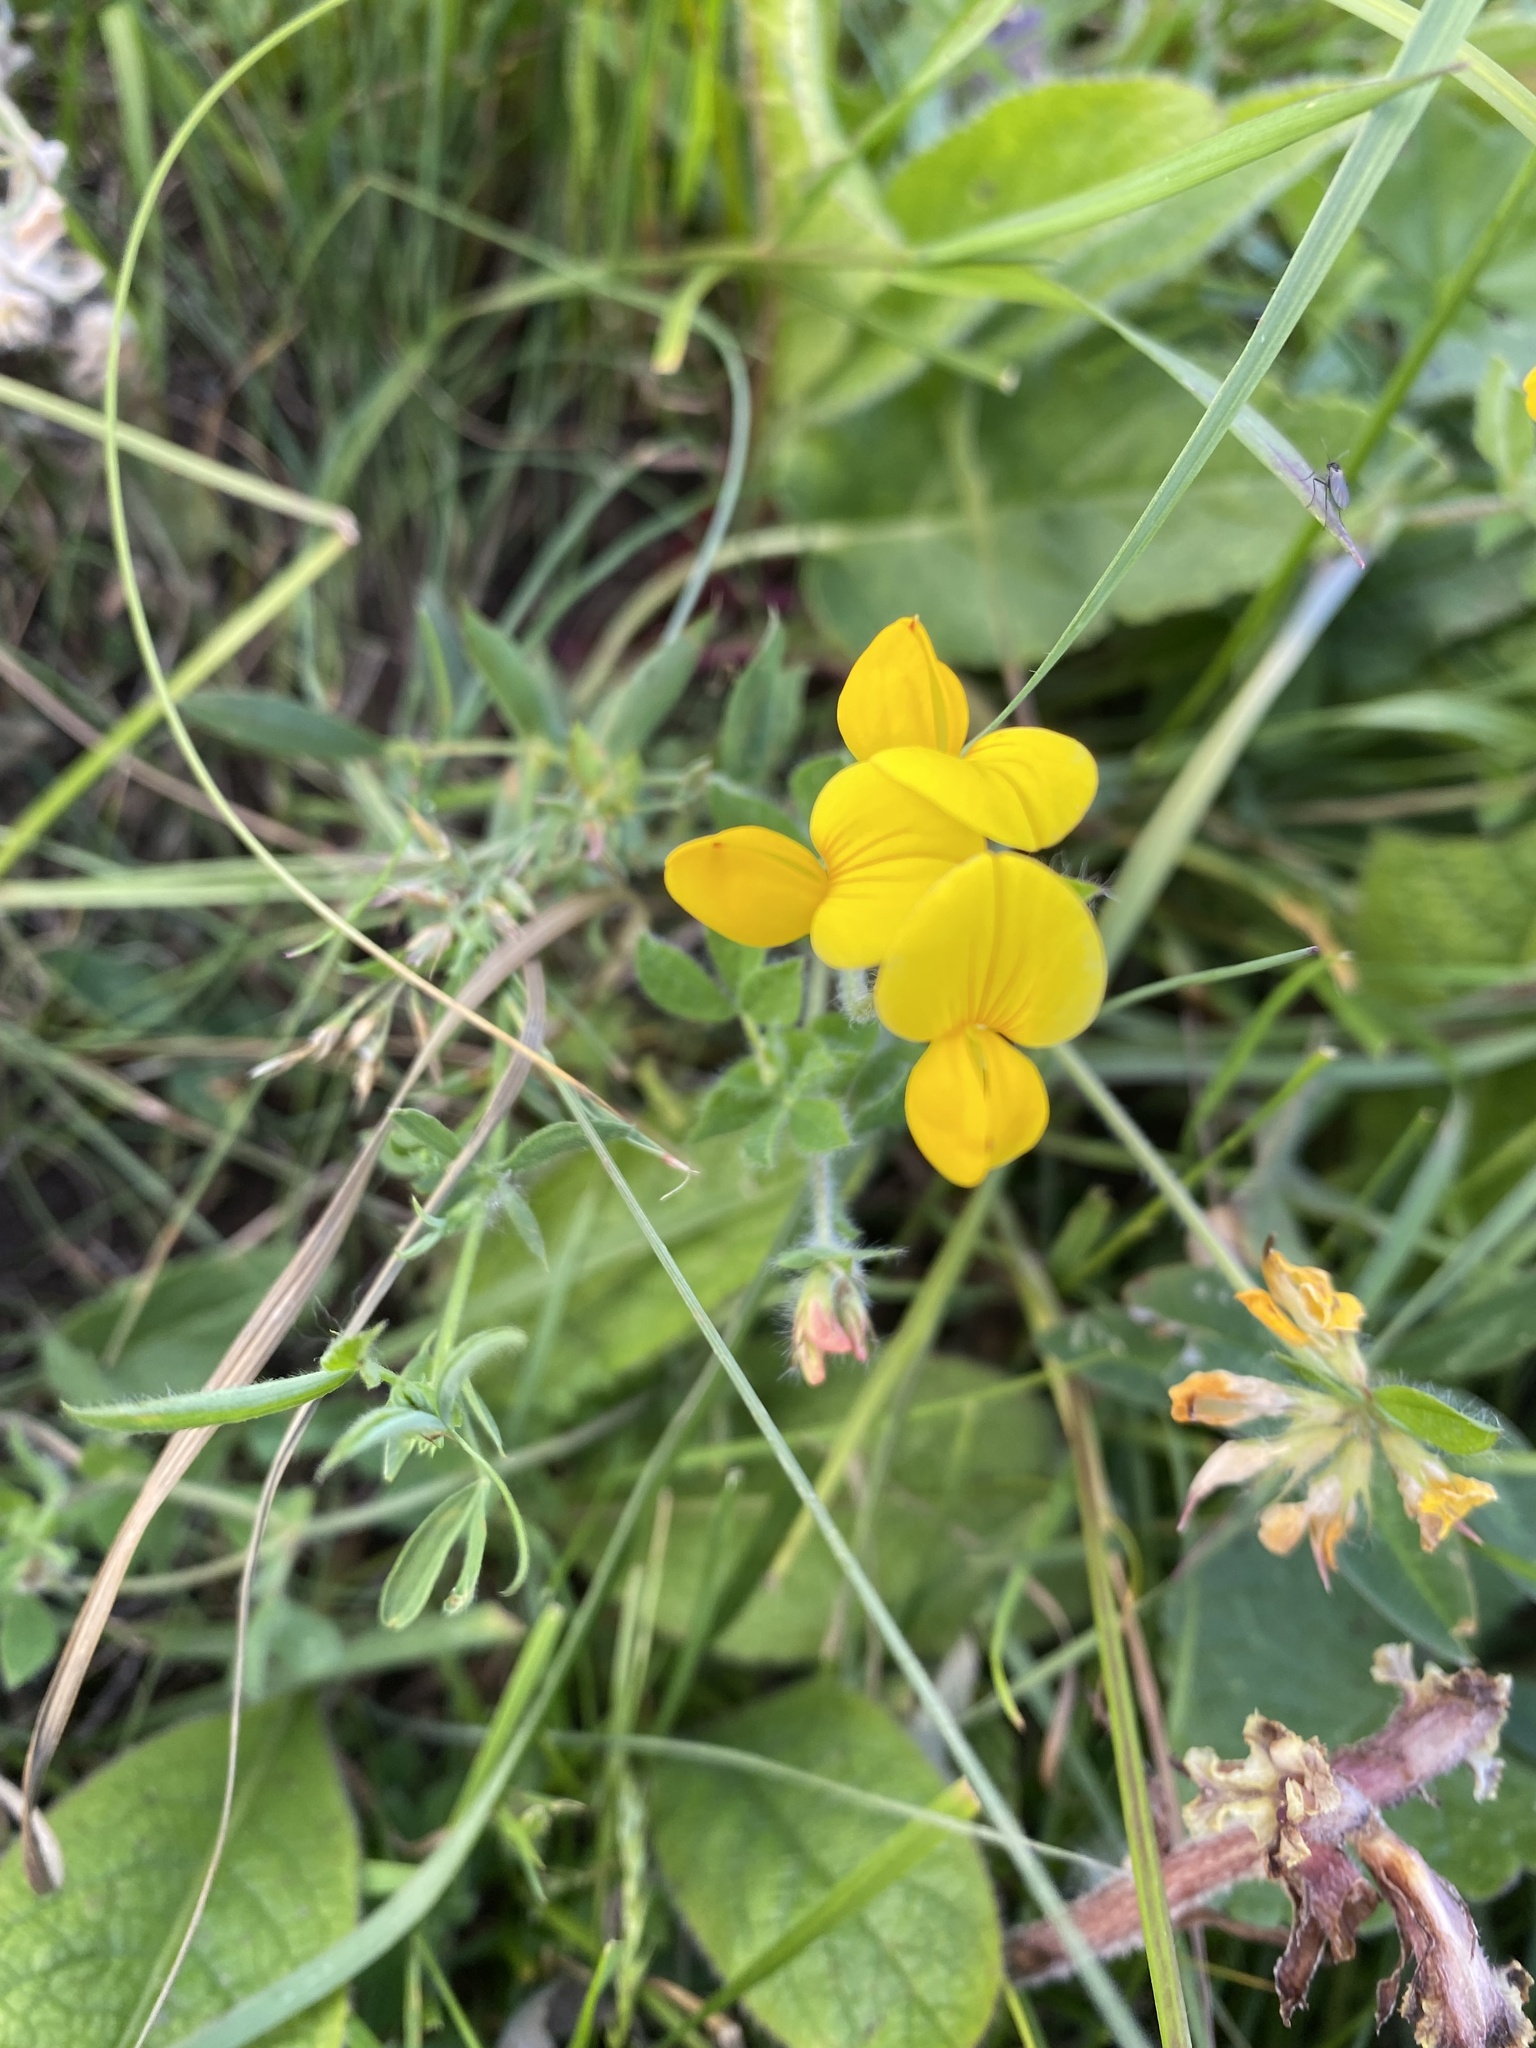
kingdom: Plantae
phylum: Tracheophyta
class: Magnoliopsida
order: Fabales
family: Fabaceae
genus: Lotus
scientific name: Lotus corniculatus
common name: Common bird's-foot-trefoil
